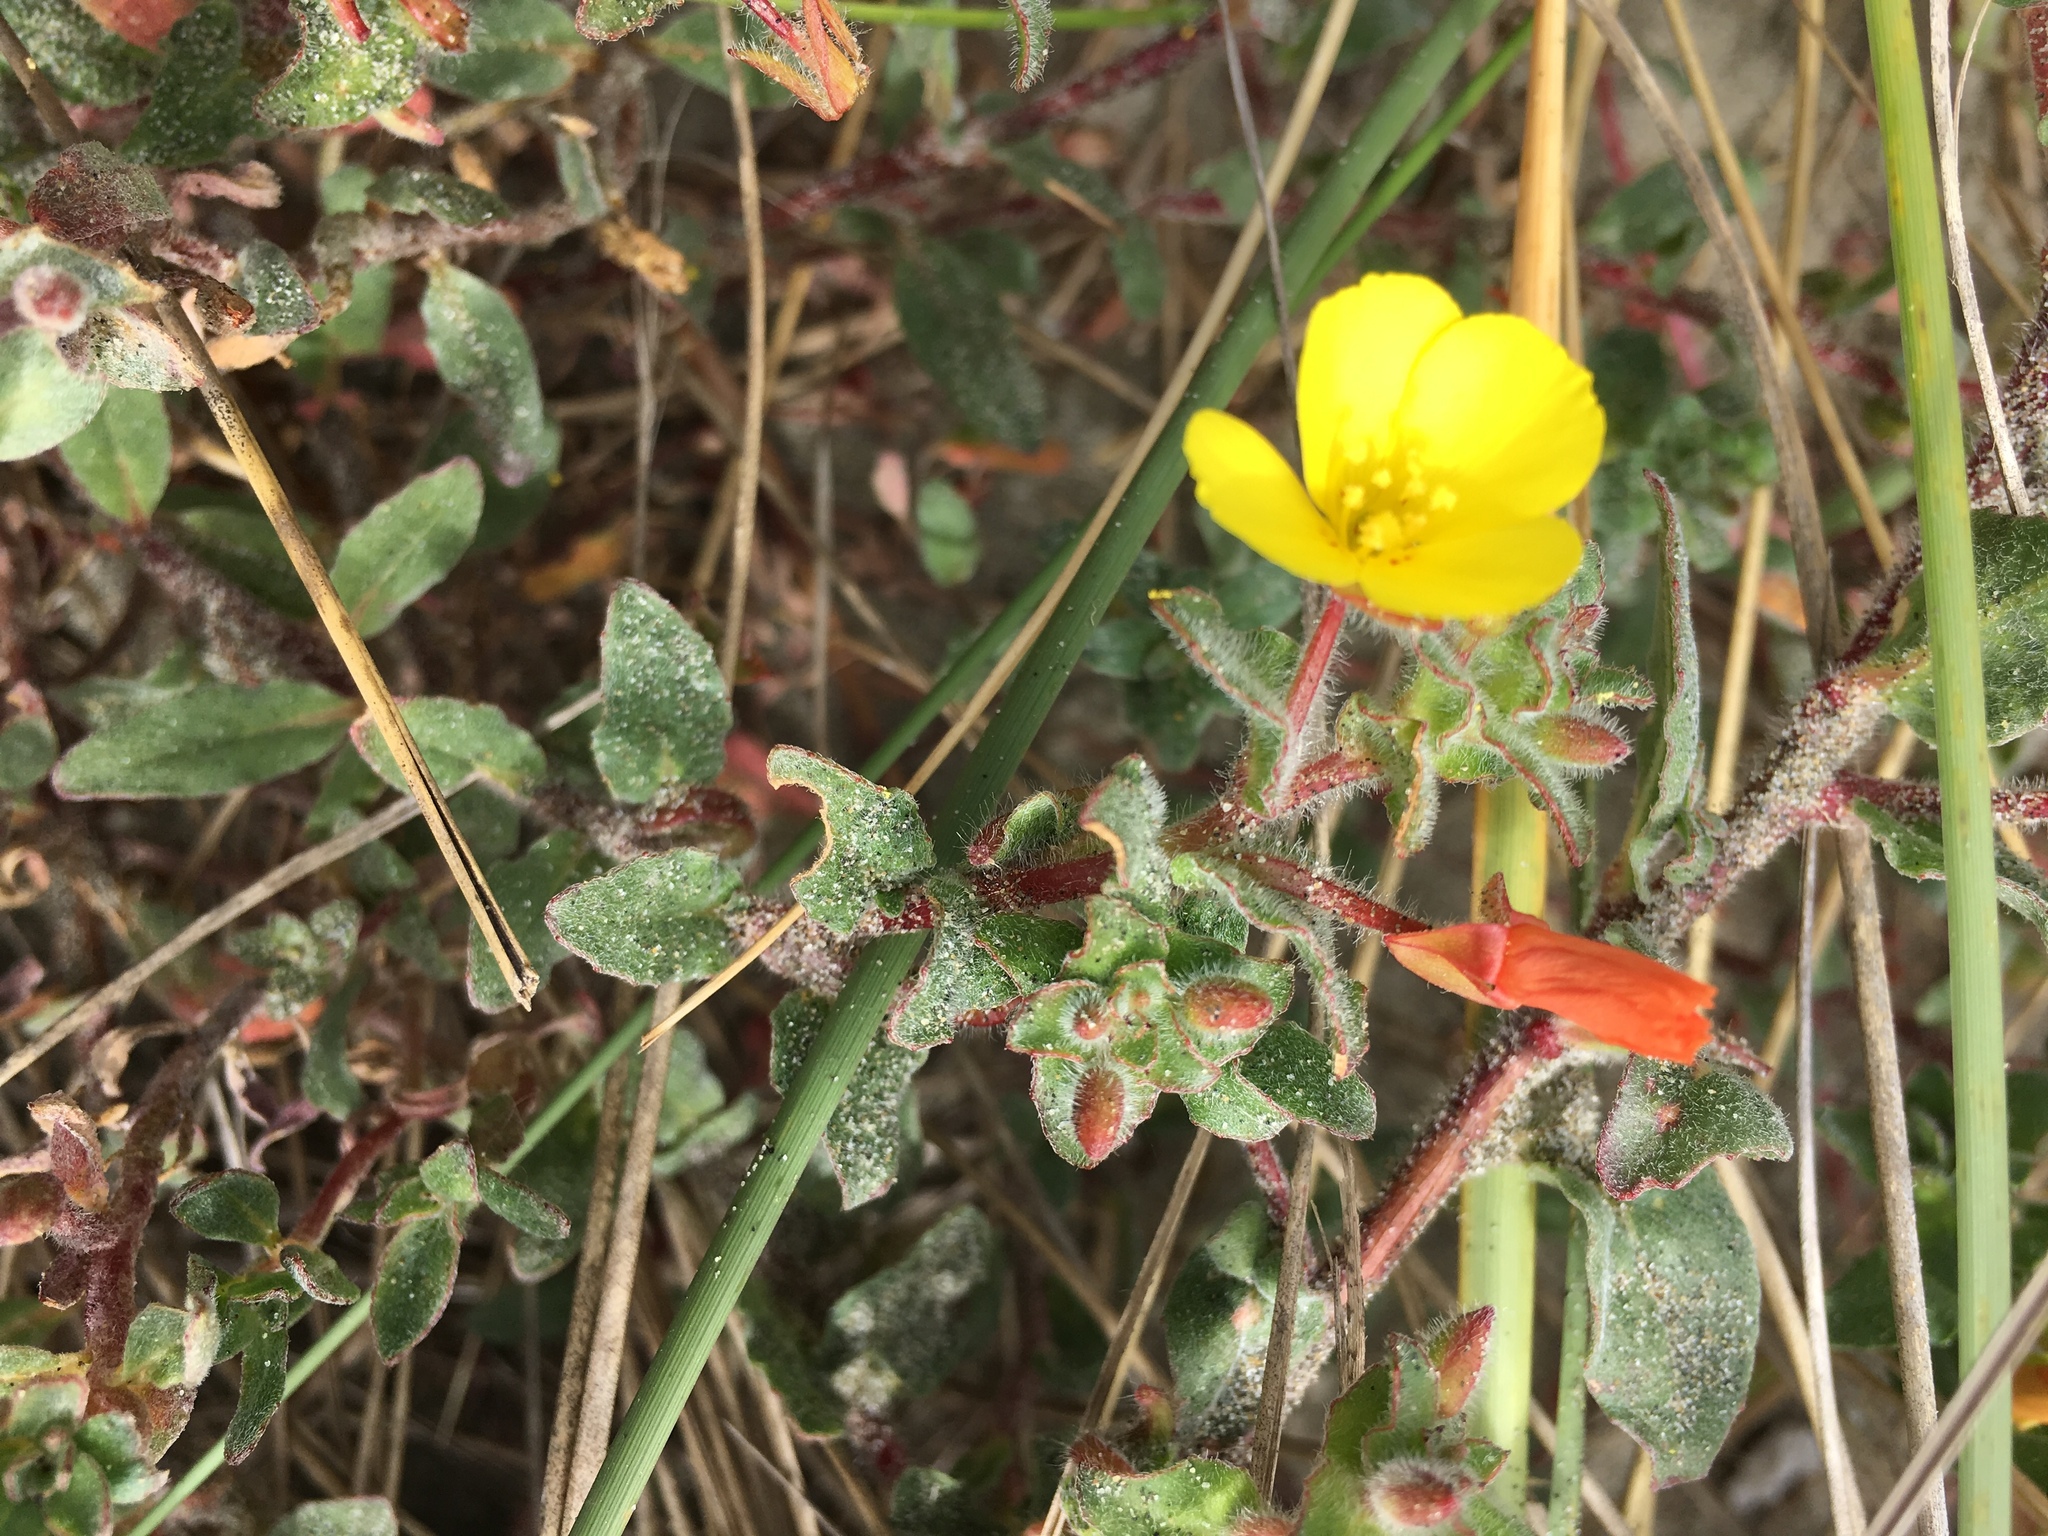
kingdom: Plantae
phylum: Tracheophyta
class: Magnoliopsida
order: Myrtales
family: Onagraceae
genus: Camissoniopsis
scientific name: Camissoniopsis cheiranthifolia
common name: Beach suncup
